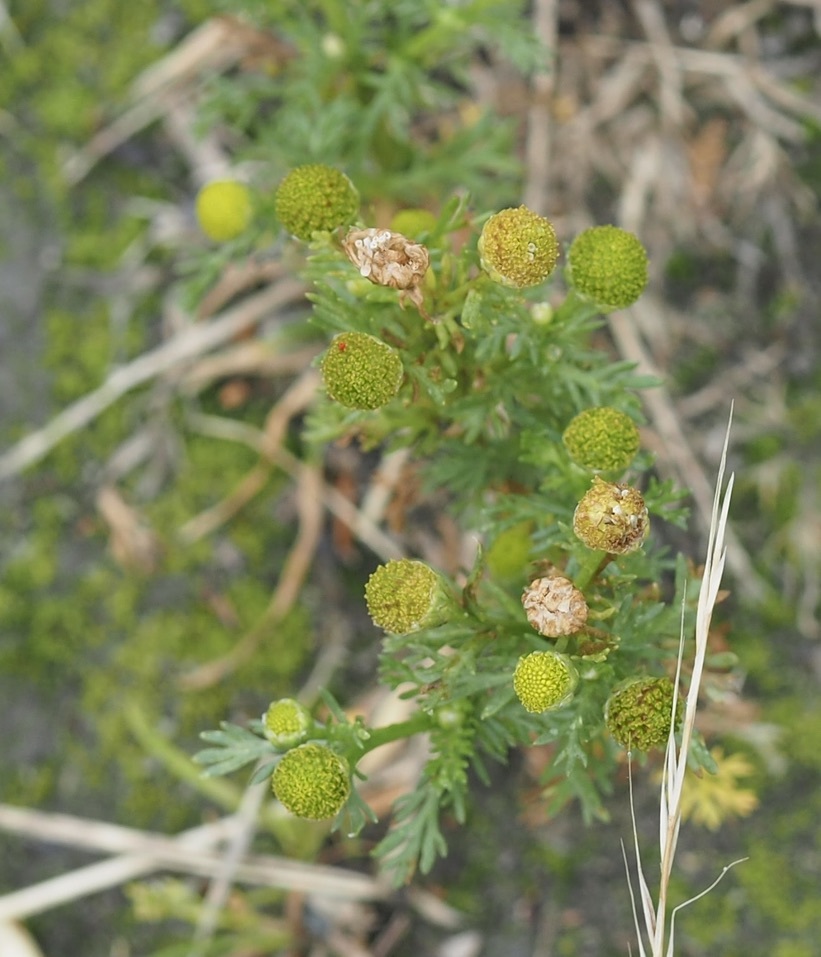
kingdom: Plantae
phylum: Tracheophyta
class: Magnoliopsida
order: Asterales
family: Asteraceae
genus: Matricaria
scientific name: Matricaria discoidea
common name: Disc mayweed
